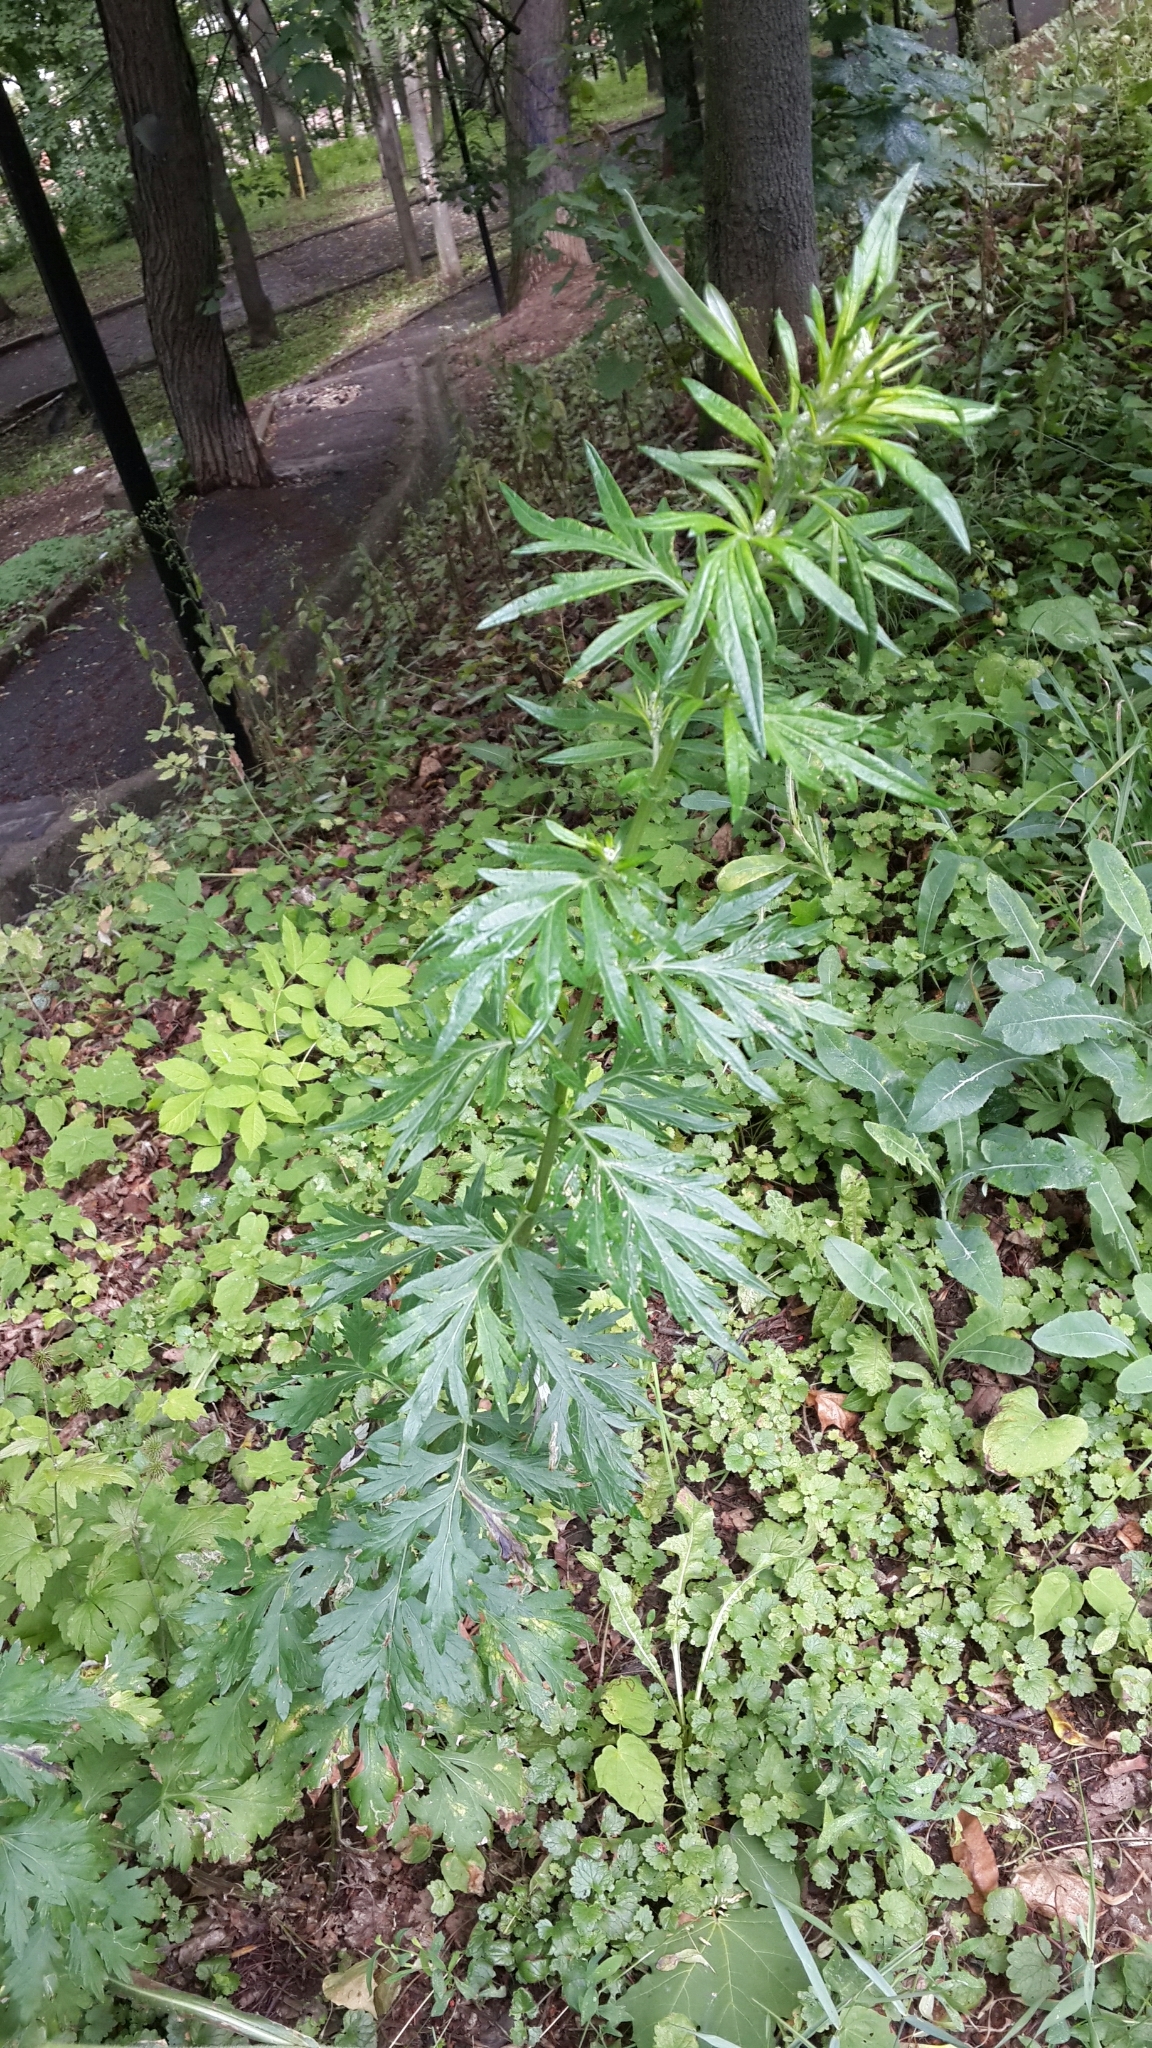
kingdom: Plantae
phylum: Tracheophyta
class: Magnoliopsida
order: Asterales
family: Asteraceae
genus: Artemisia
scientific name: Artemisia vulgaris
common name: Mugwort
